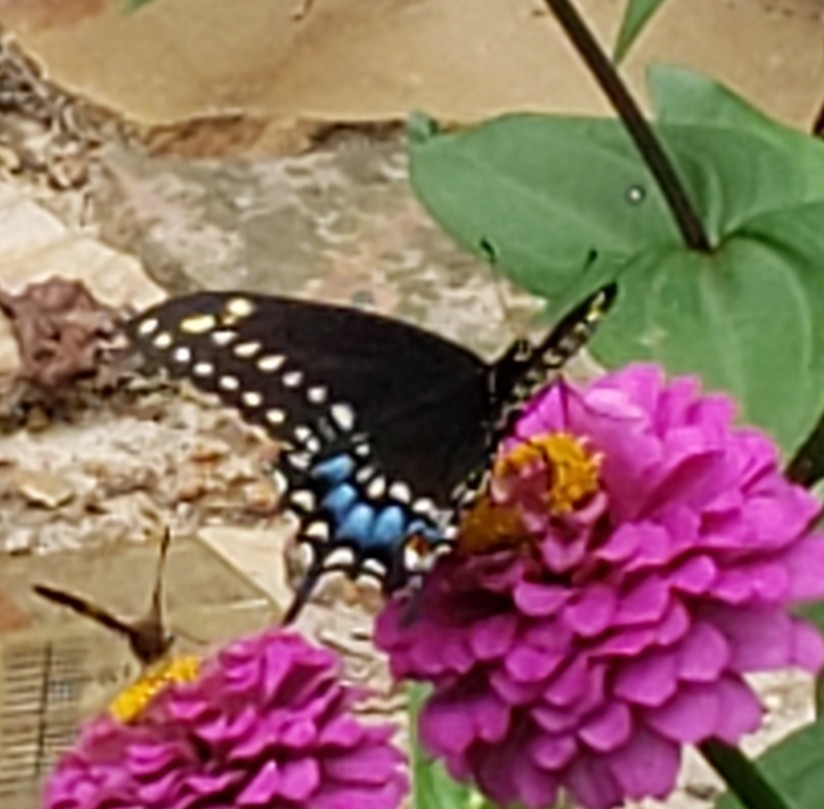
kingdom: Animalia
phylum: Arthropoda
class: Insecta
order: Lepidoptera
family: Papilionidae
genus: Papilio
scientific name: Papilio polyxenes
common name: Black swallowtail
